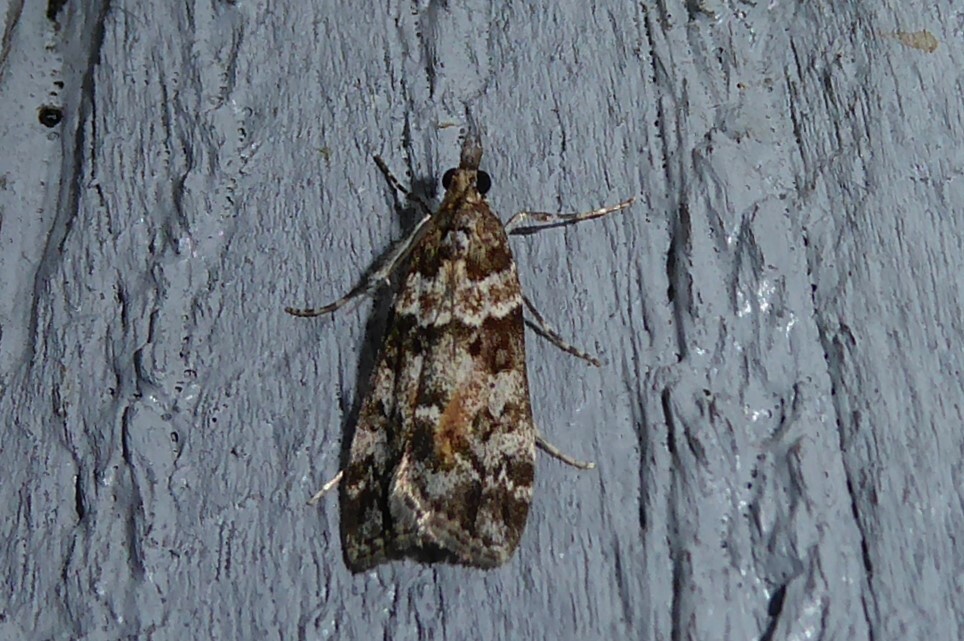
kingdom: Animalia
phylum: Arthropoda
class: Insecta
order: Lepidoptera
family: Crambidae
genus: Eudonia
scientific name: Eudonia submarginalis
